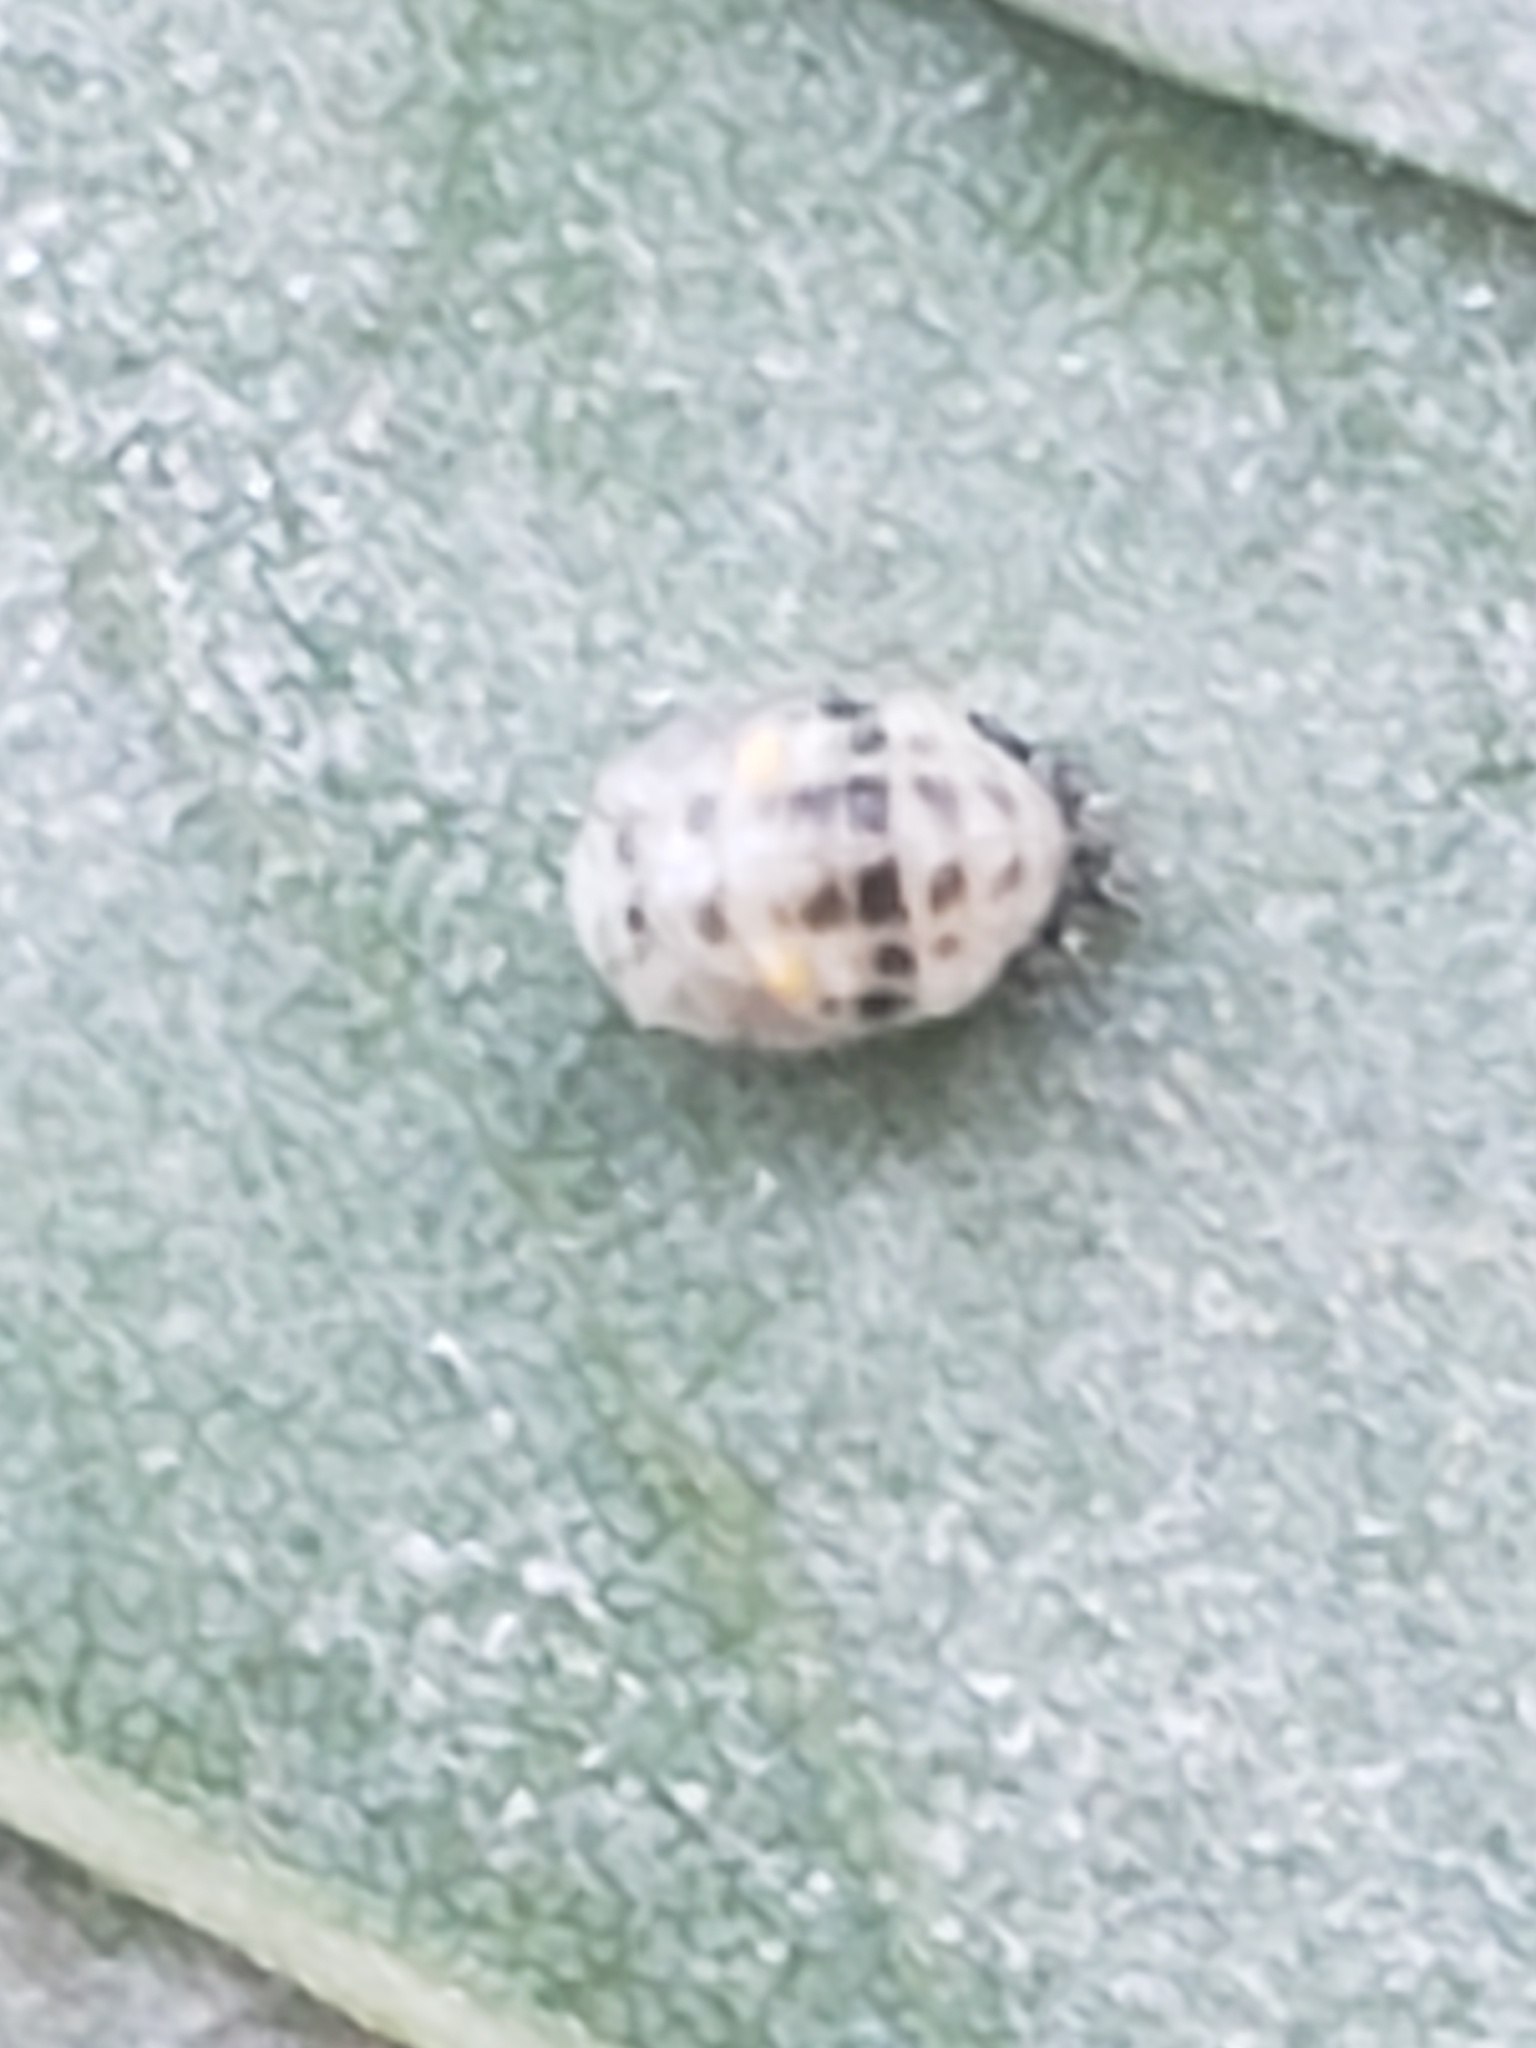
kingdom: Animalia
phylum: Arthropoda
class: Insecta
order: Coleoptera
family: Coccinellidae
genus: Psyllobora
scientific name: Psyllobora vigintimaculata
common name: Ladybird beetle
